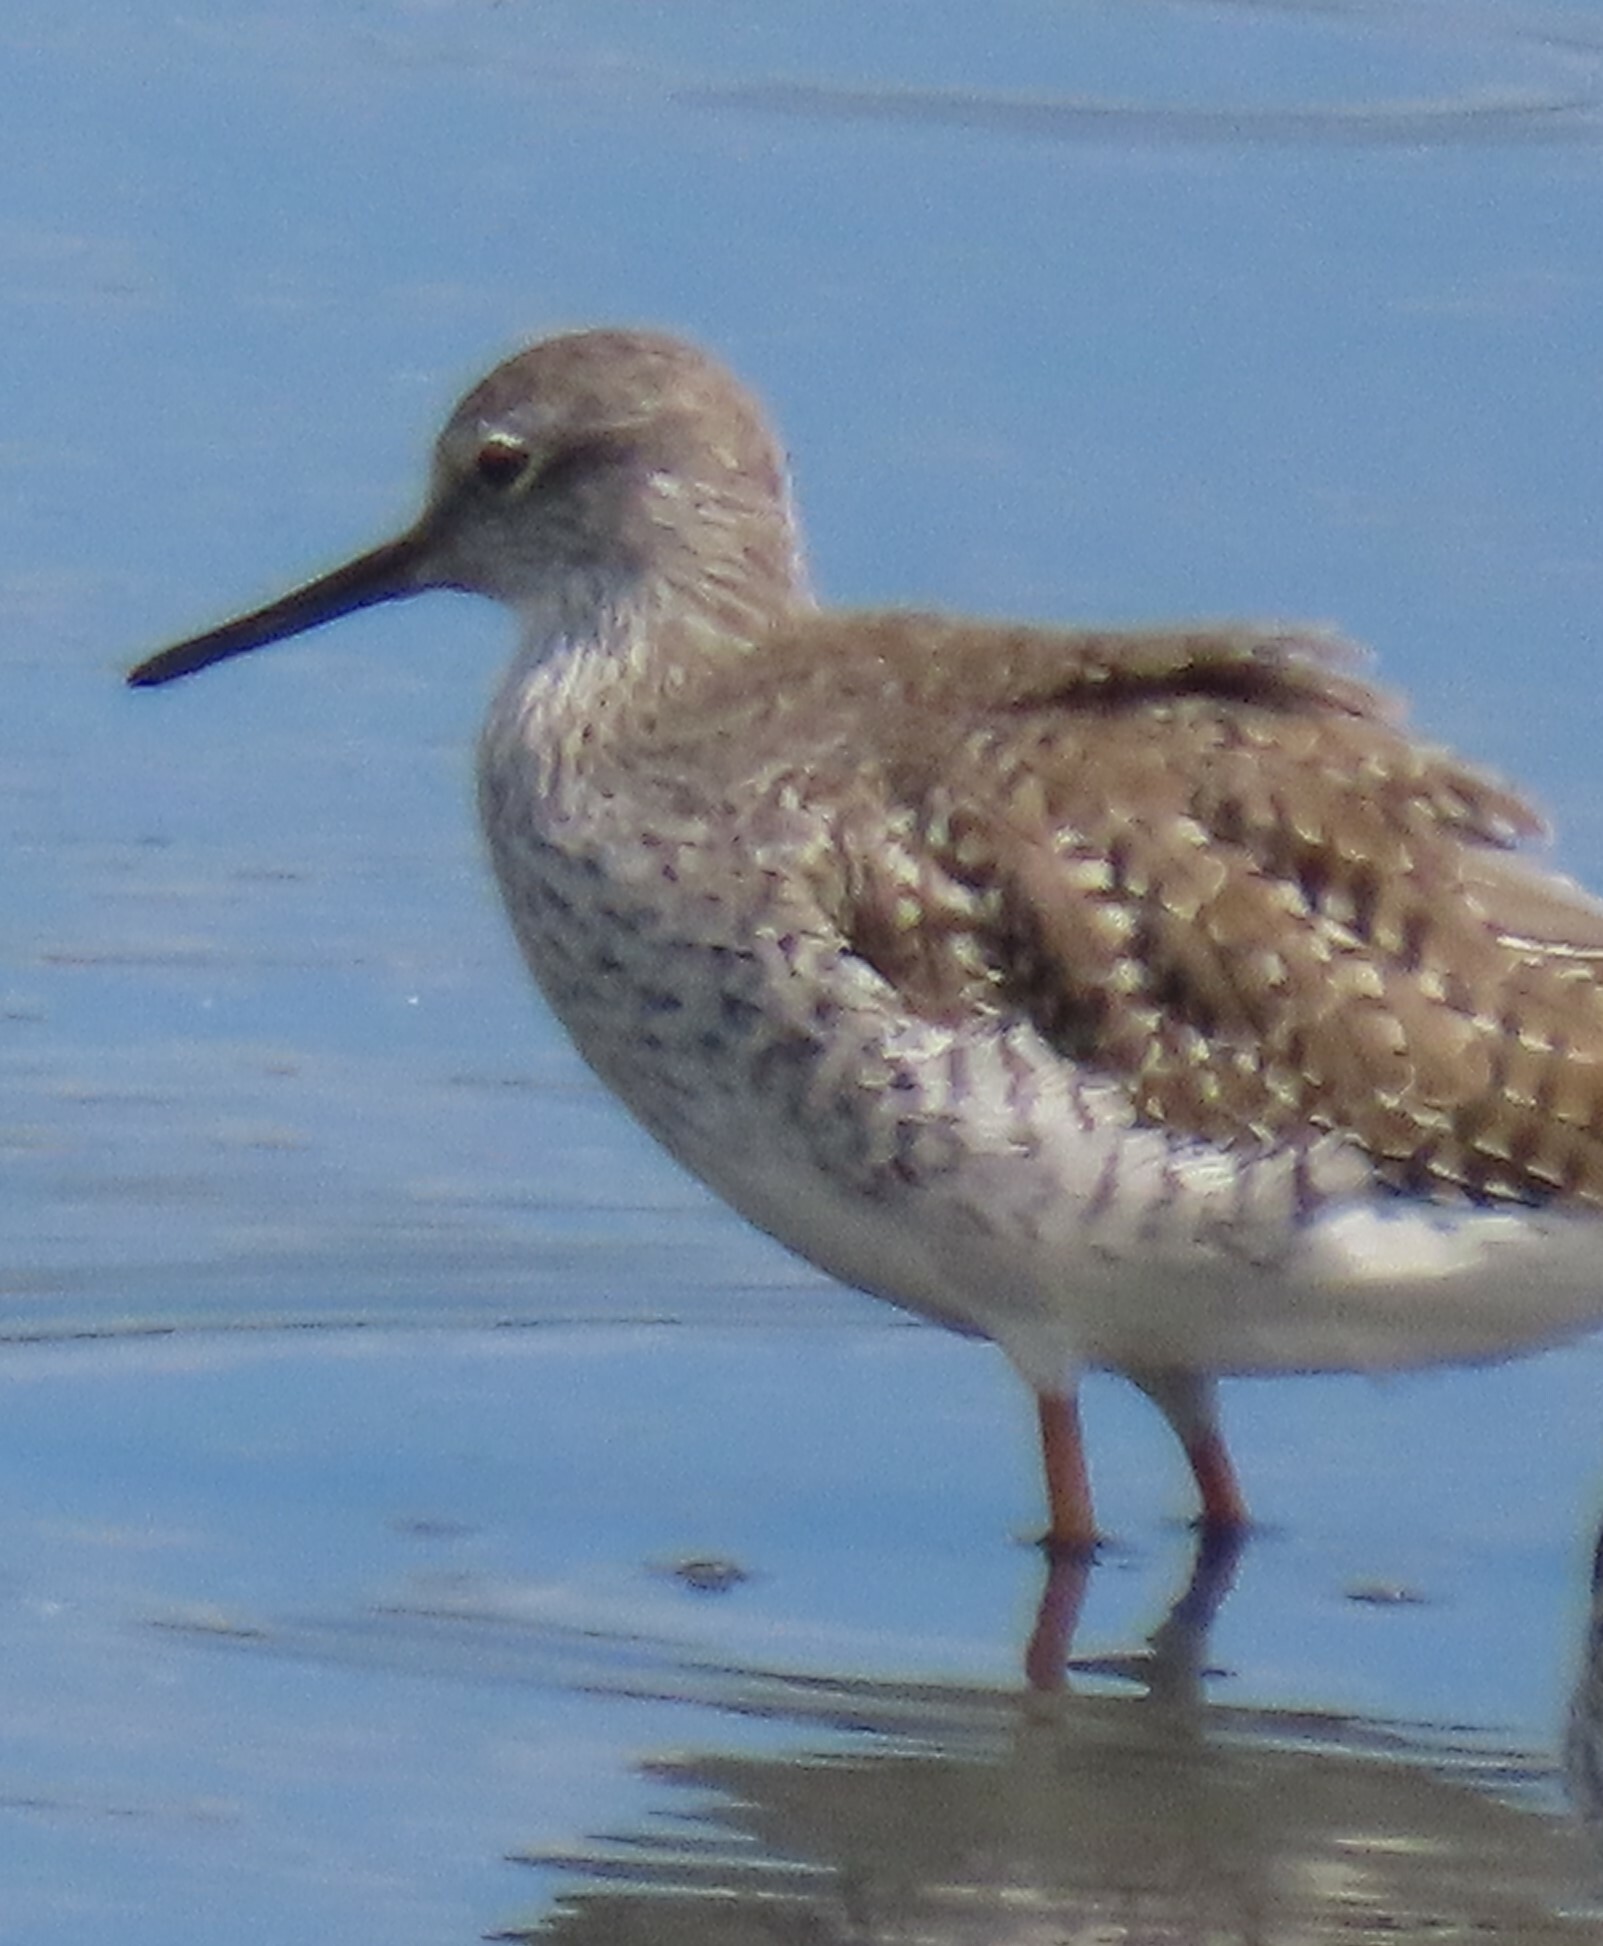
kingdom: Animalia
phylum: Chordata
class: Aves
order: Charadriiformes
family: Scolopacidae
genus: Tringa
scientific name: Tringa melanoleuca
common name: Greater yellowlegs
